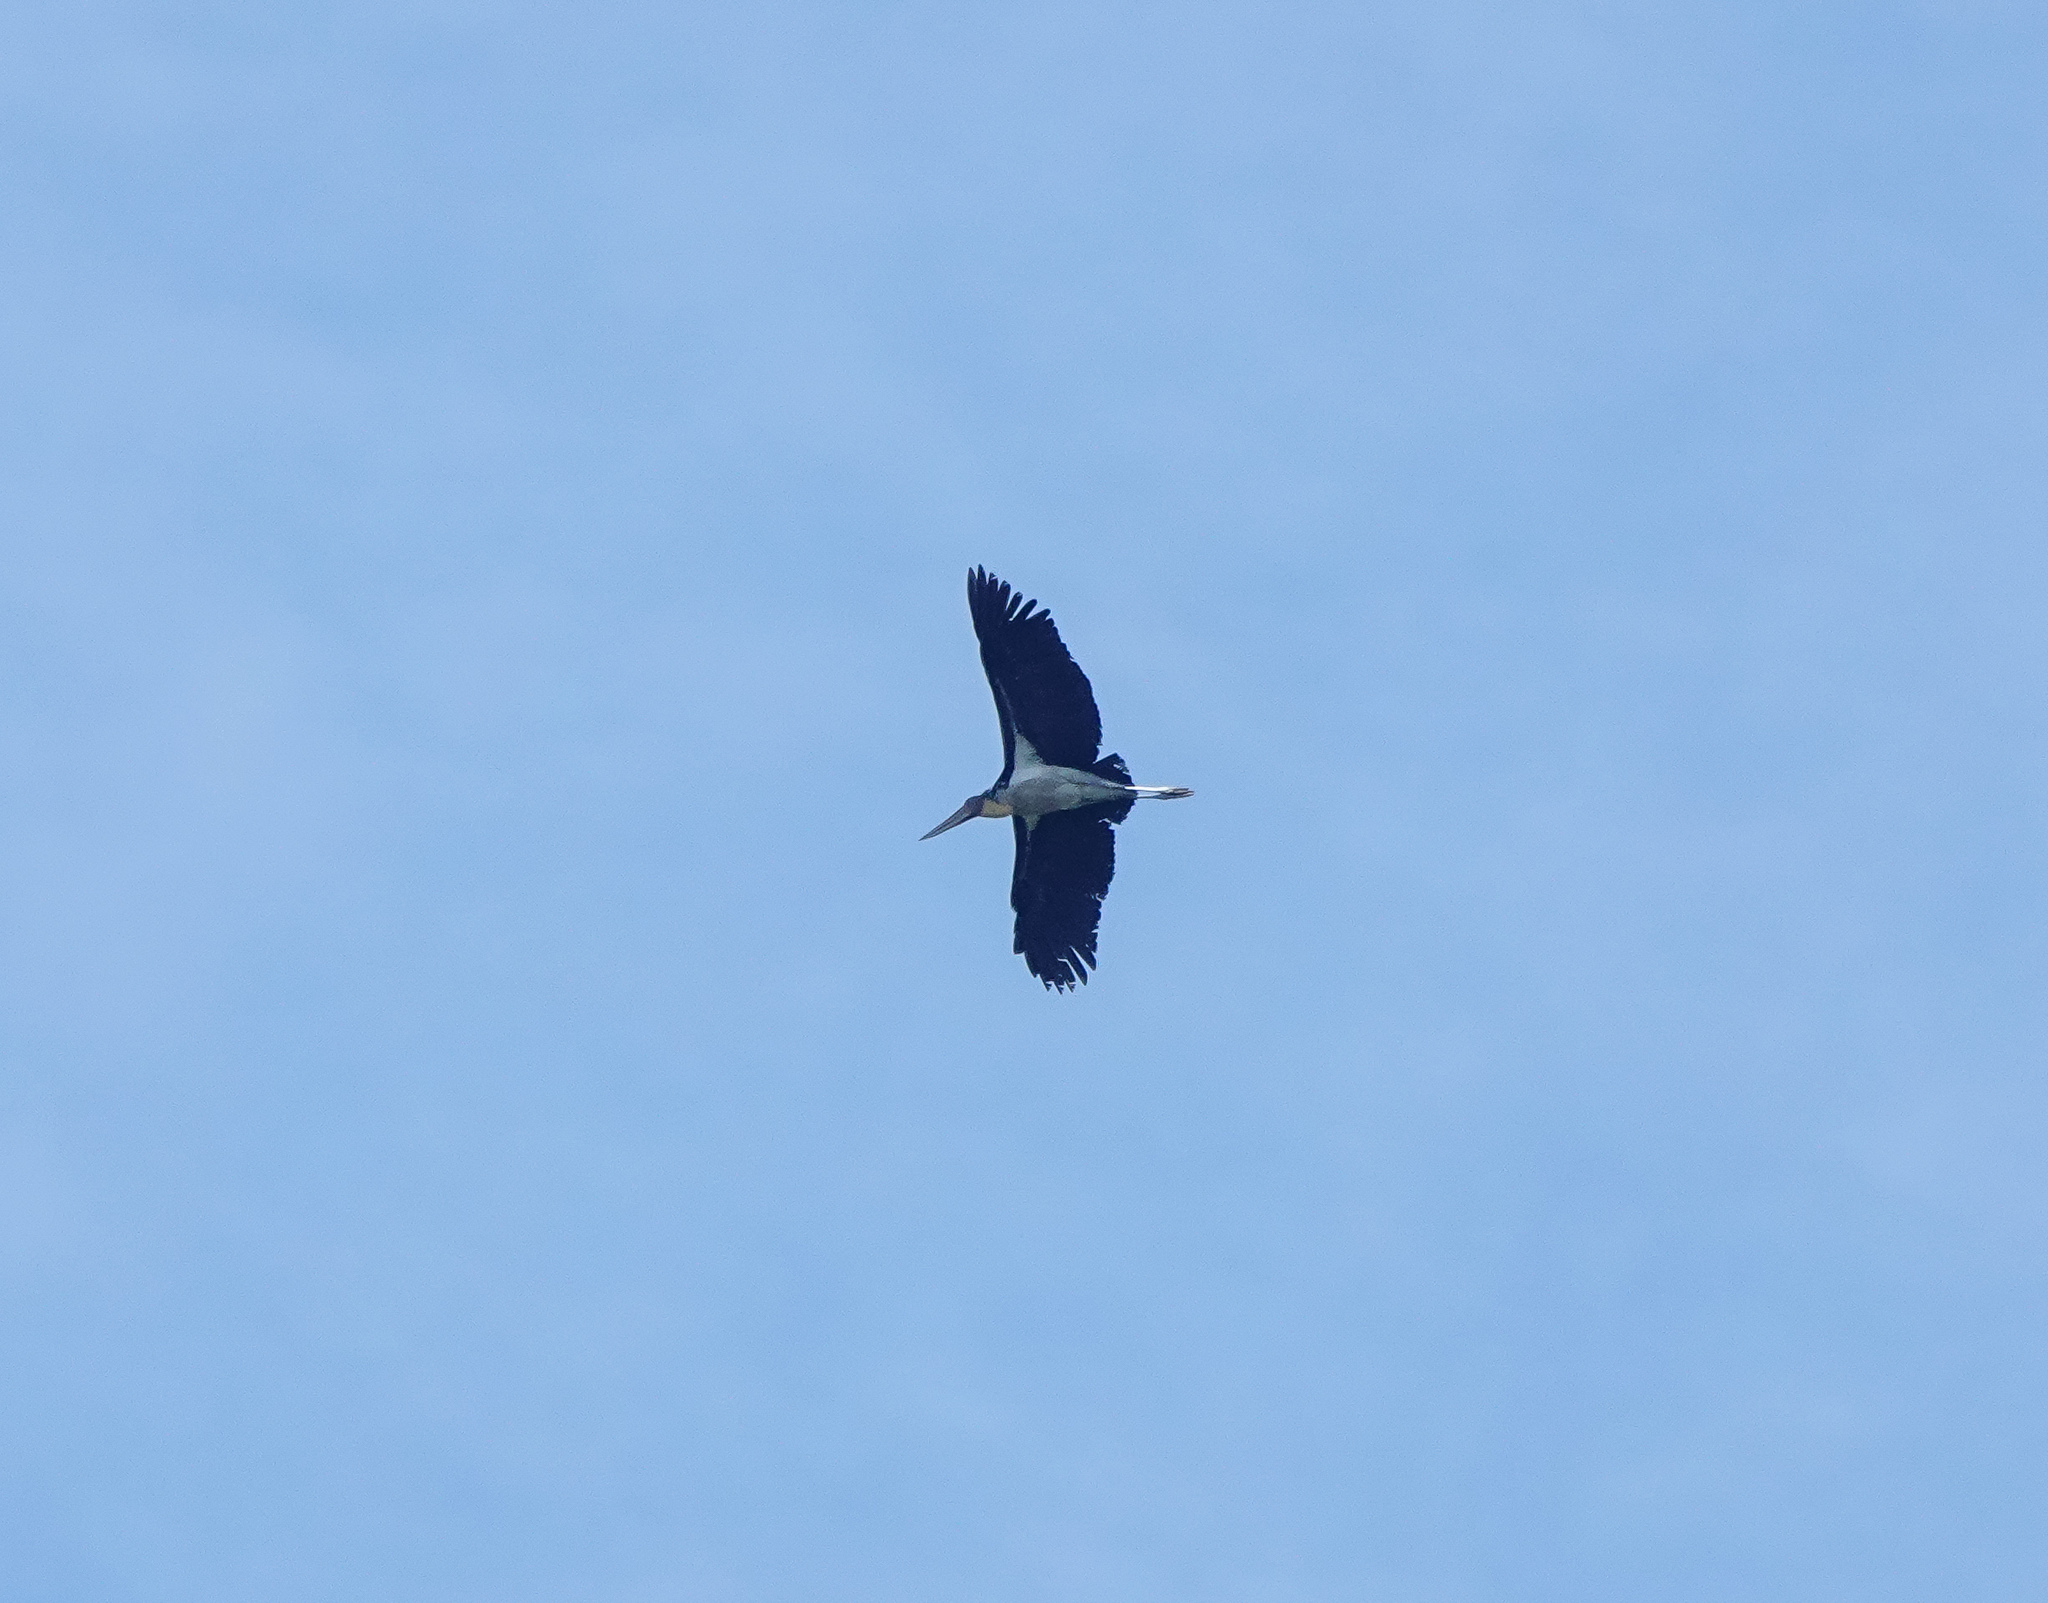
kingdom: Animalia
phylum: Chordata
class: Aves
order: Ciconiiformes
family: Ciconiidae
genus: Leptoptilos
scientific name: Leptoptilos javanicus
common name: Lesser adjutant
